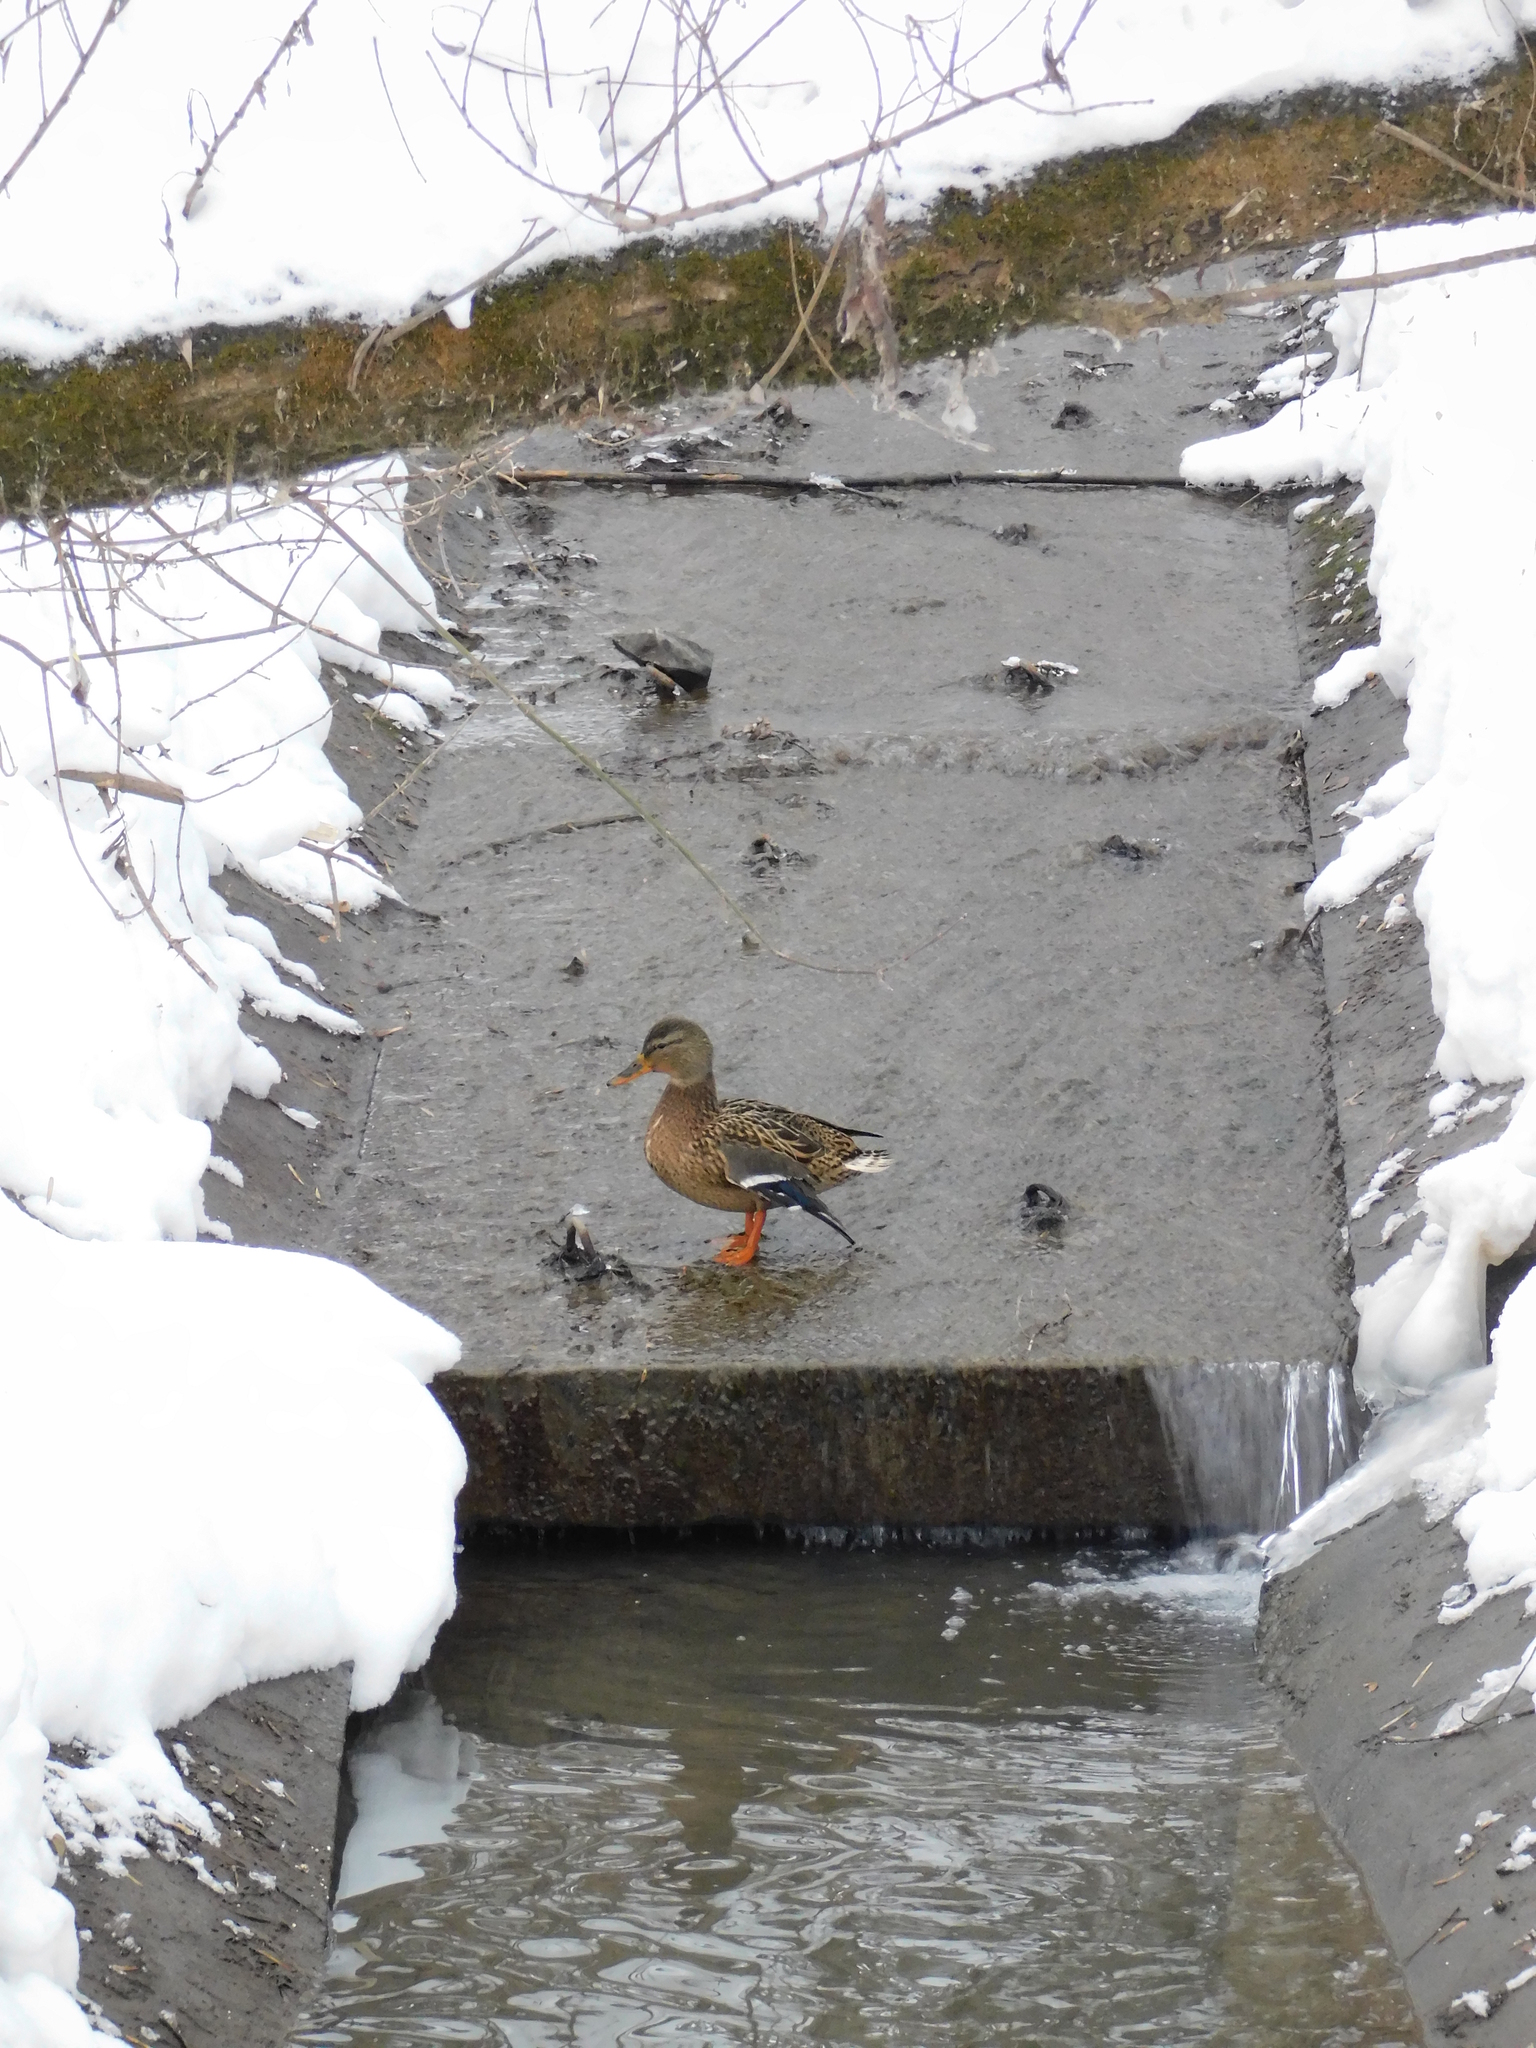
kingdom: Animalia
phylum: Chordata
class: Aves
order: Anseriformes
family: Anatidae
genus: Anas
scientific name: Anas platyrhynchos
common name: Mallard
